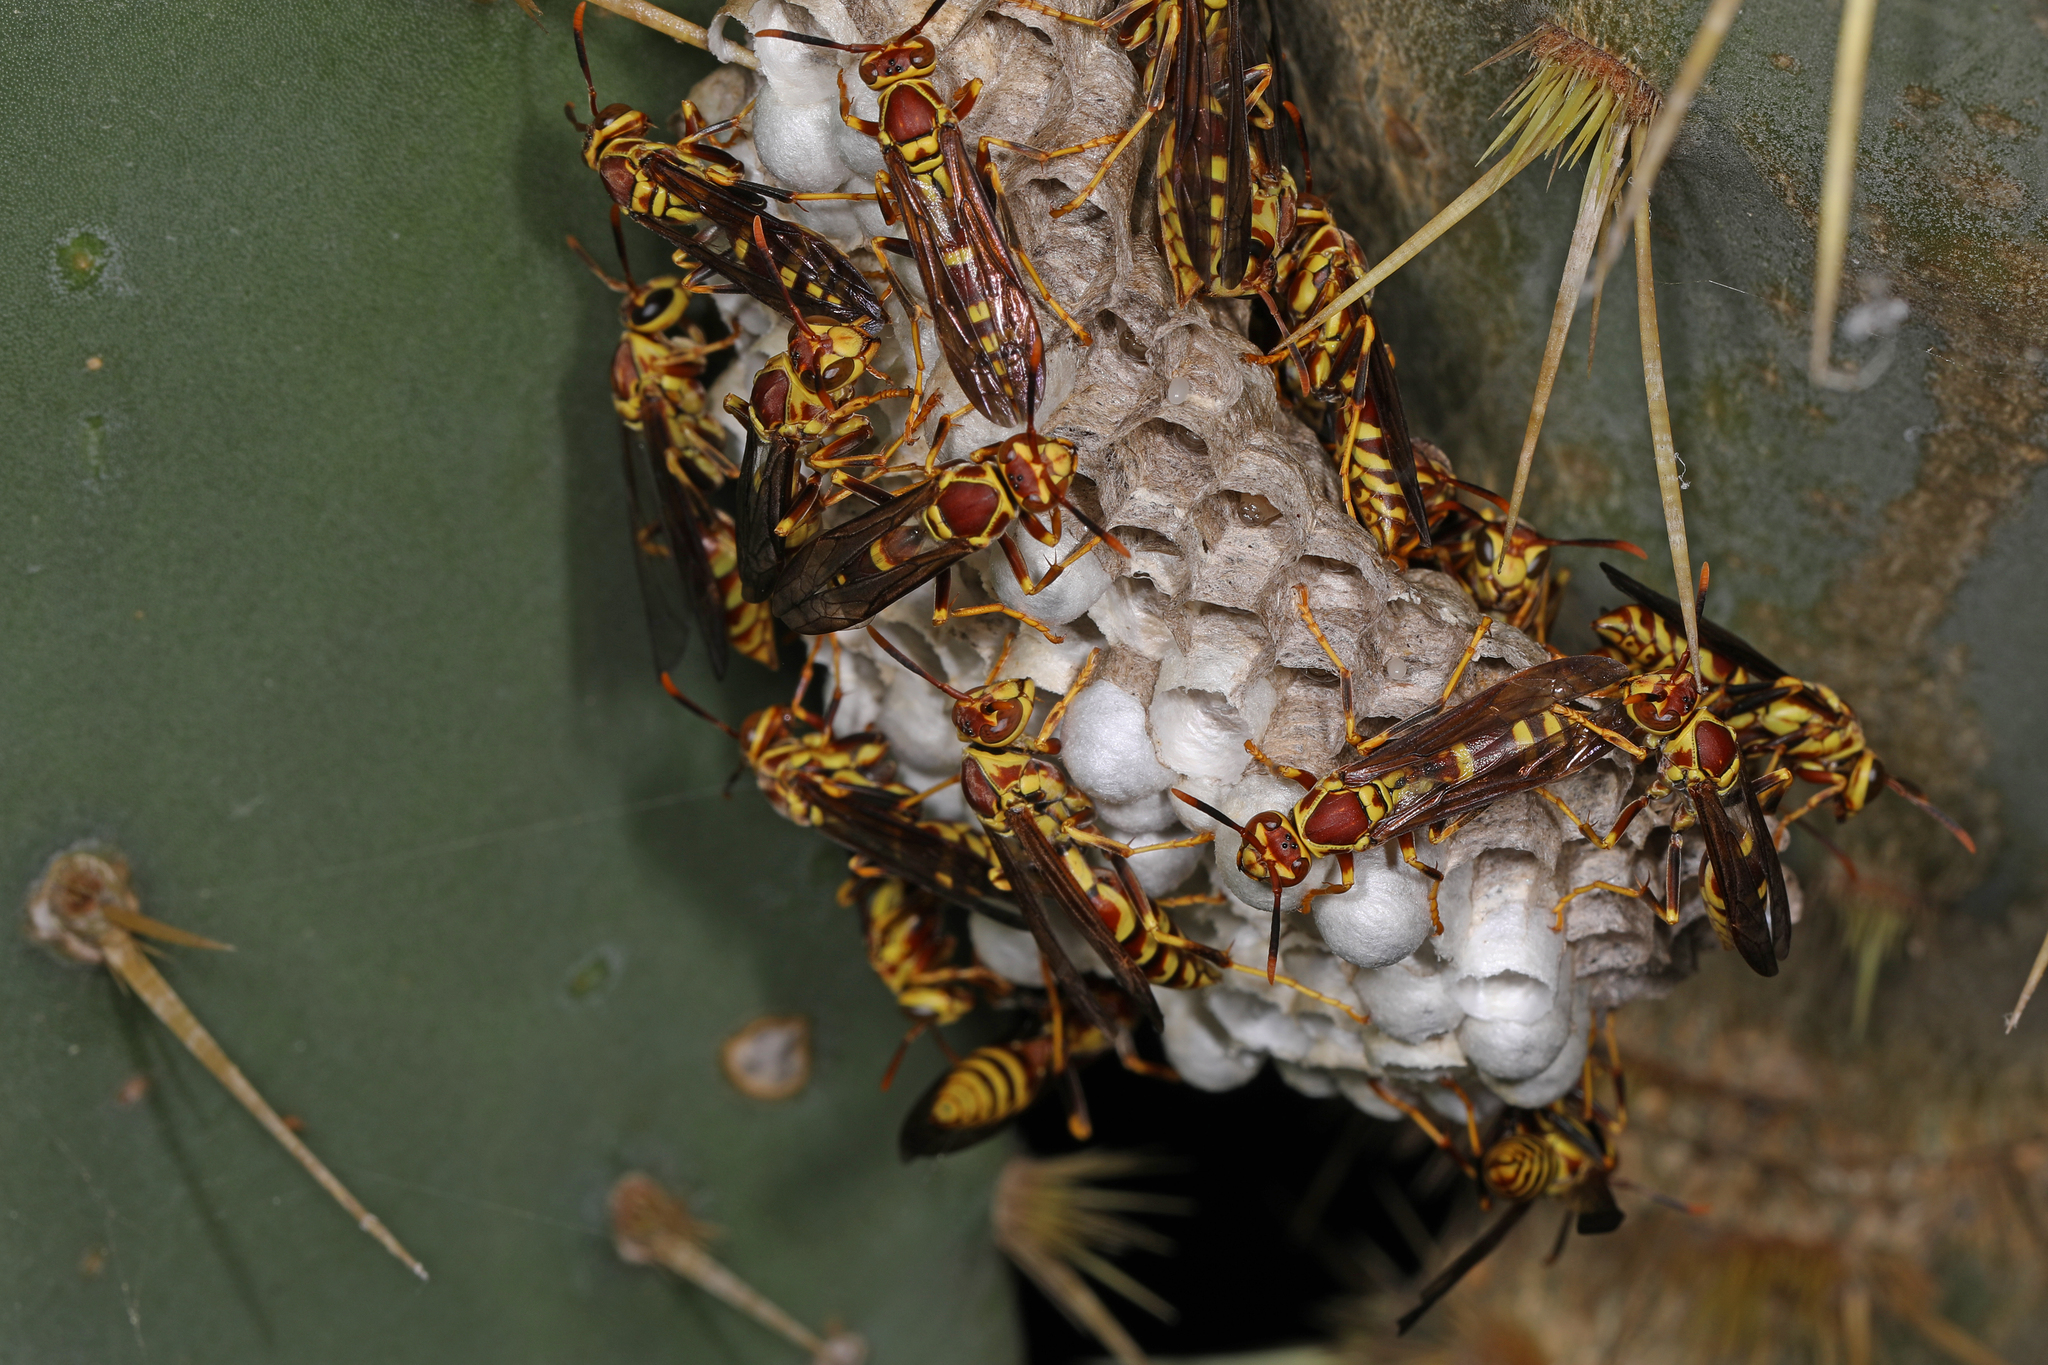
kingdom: Animalia
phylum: Arthropoda
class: Insecta
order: Hymenoptera
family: Eumenidae
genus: Polistes
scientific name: Polistes exclamans
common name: Paper wasp
